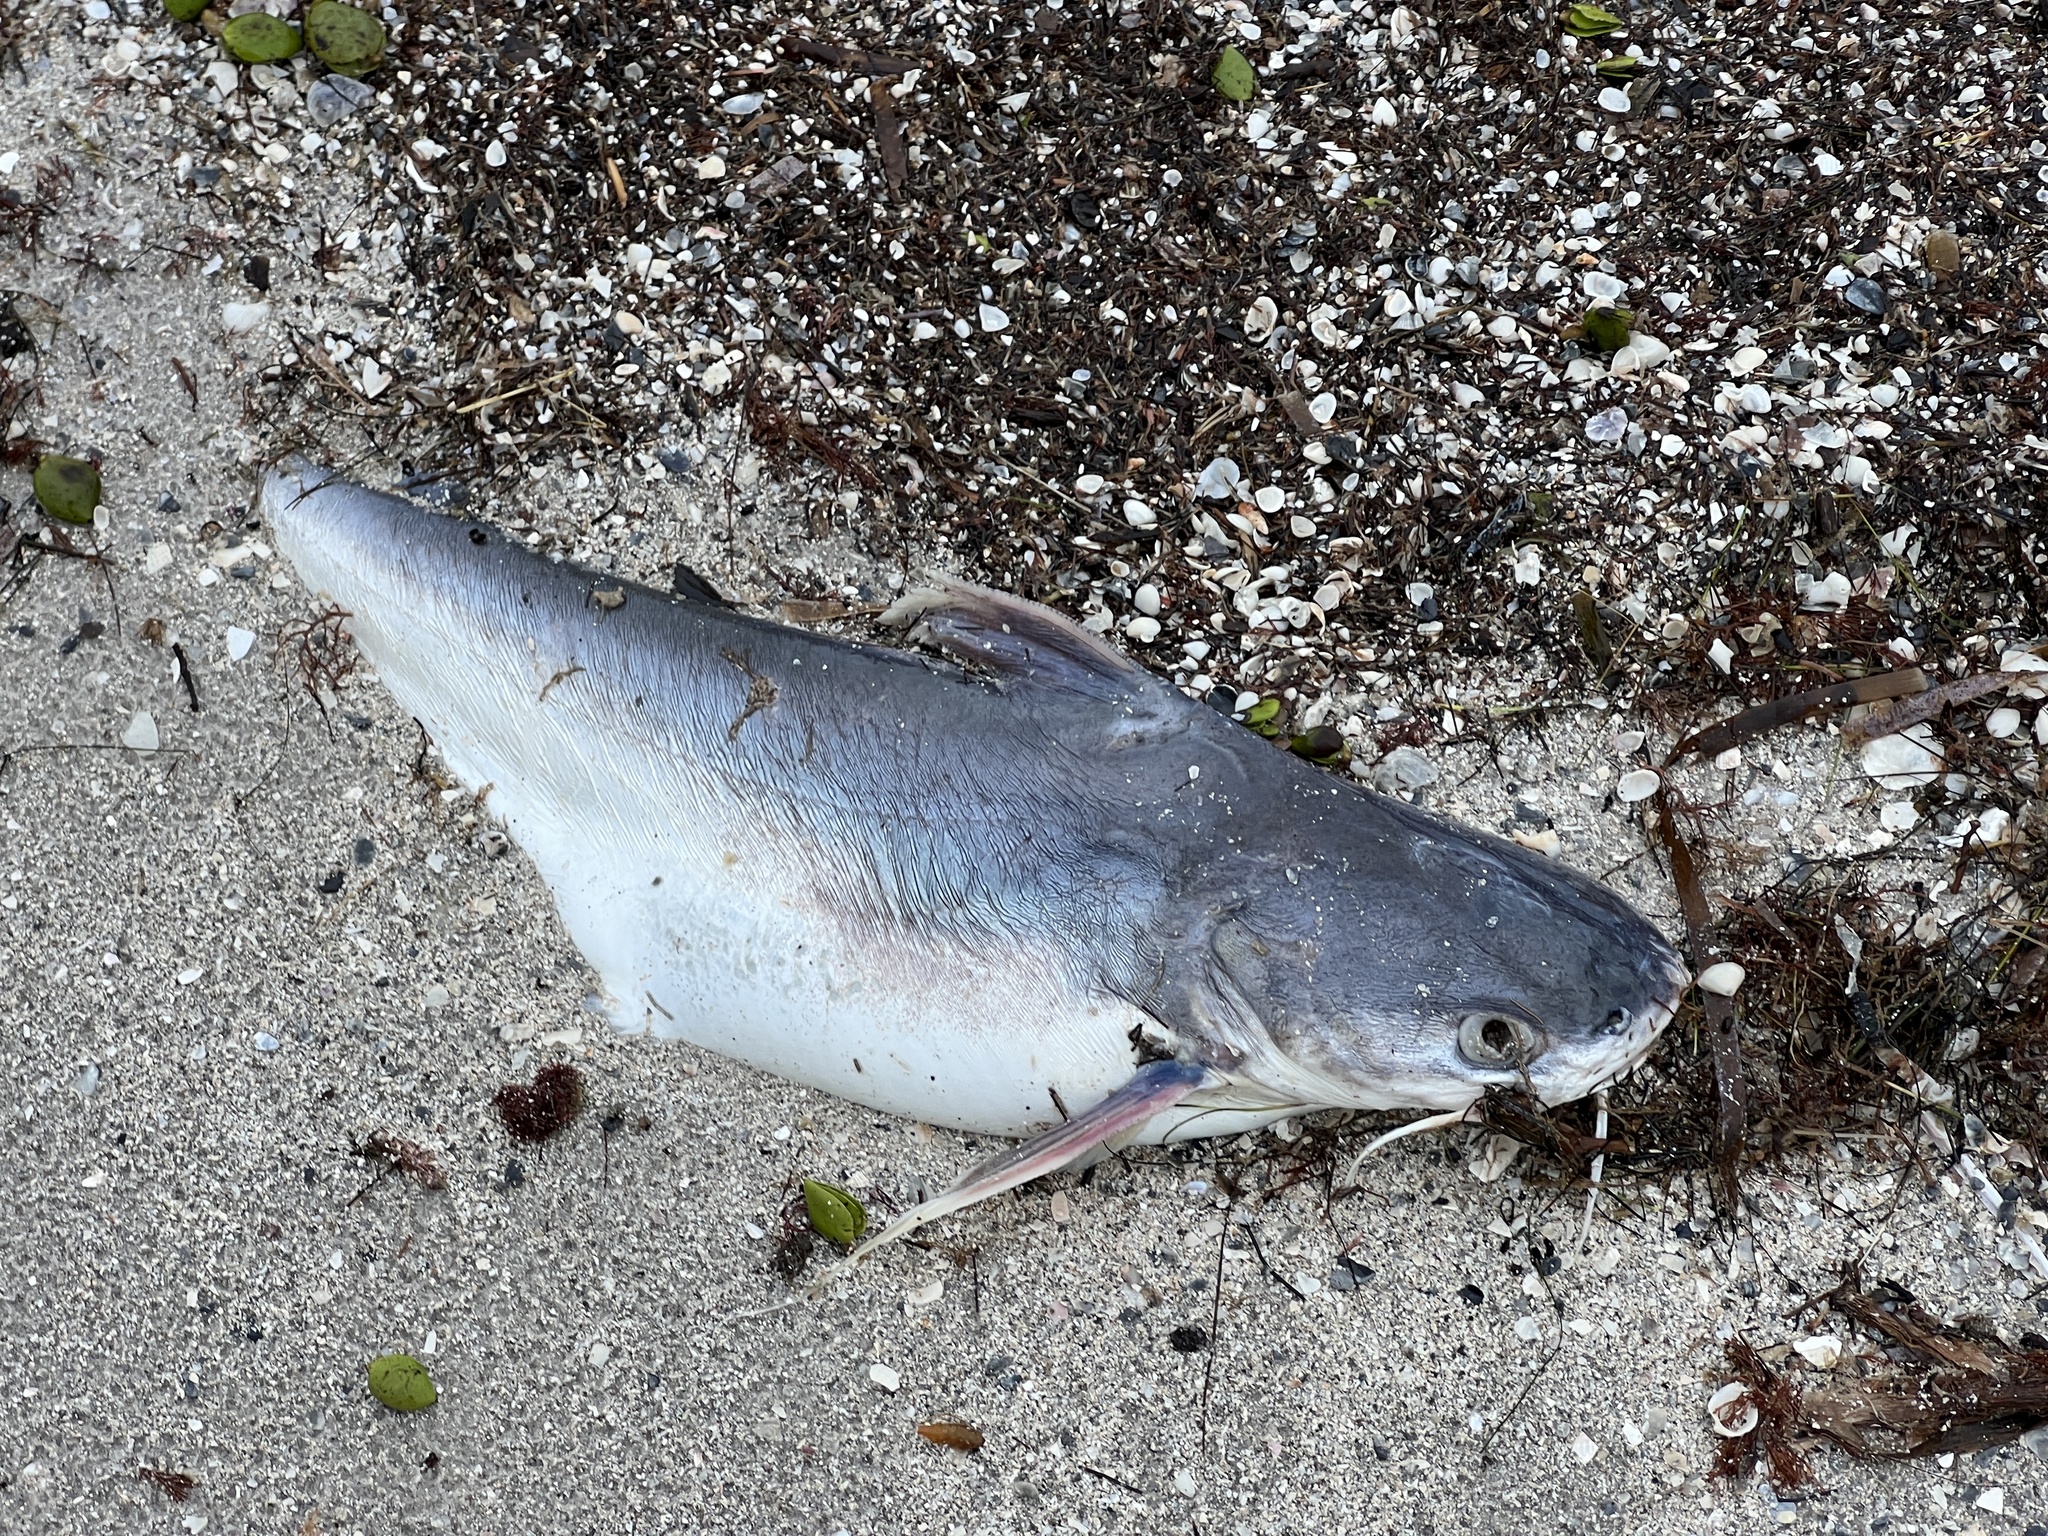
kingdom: Animalia
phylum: Chordata
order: Siluriformes
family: Ariidae
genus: Bagre
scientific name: Bagre marinus
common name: Gafftopsail sea catfish
